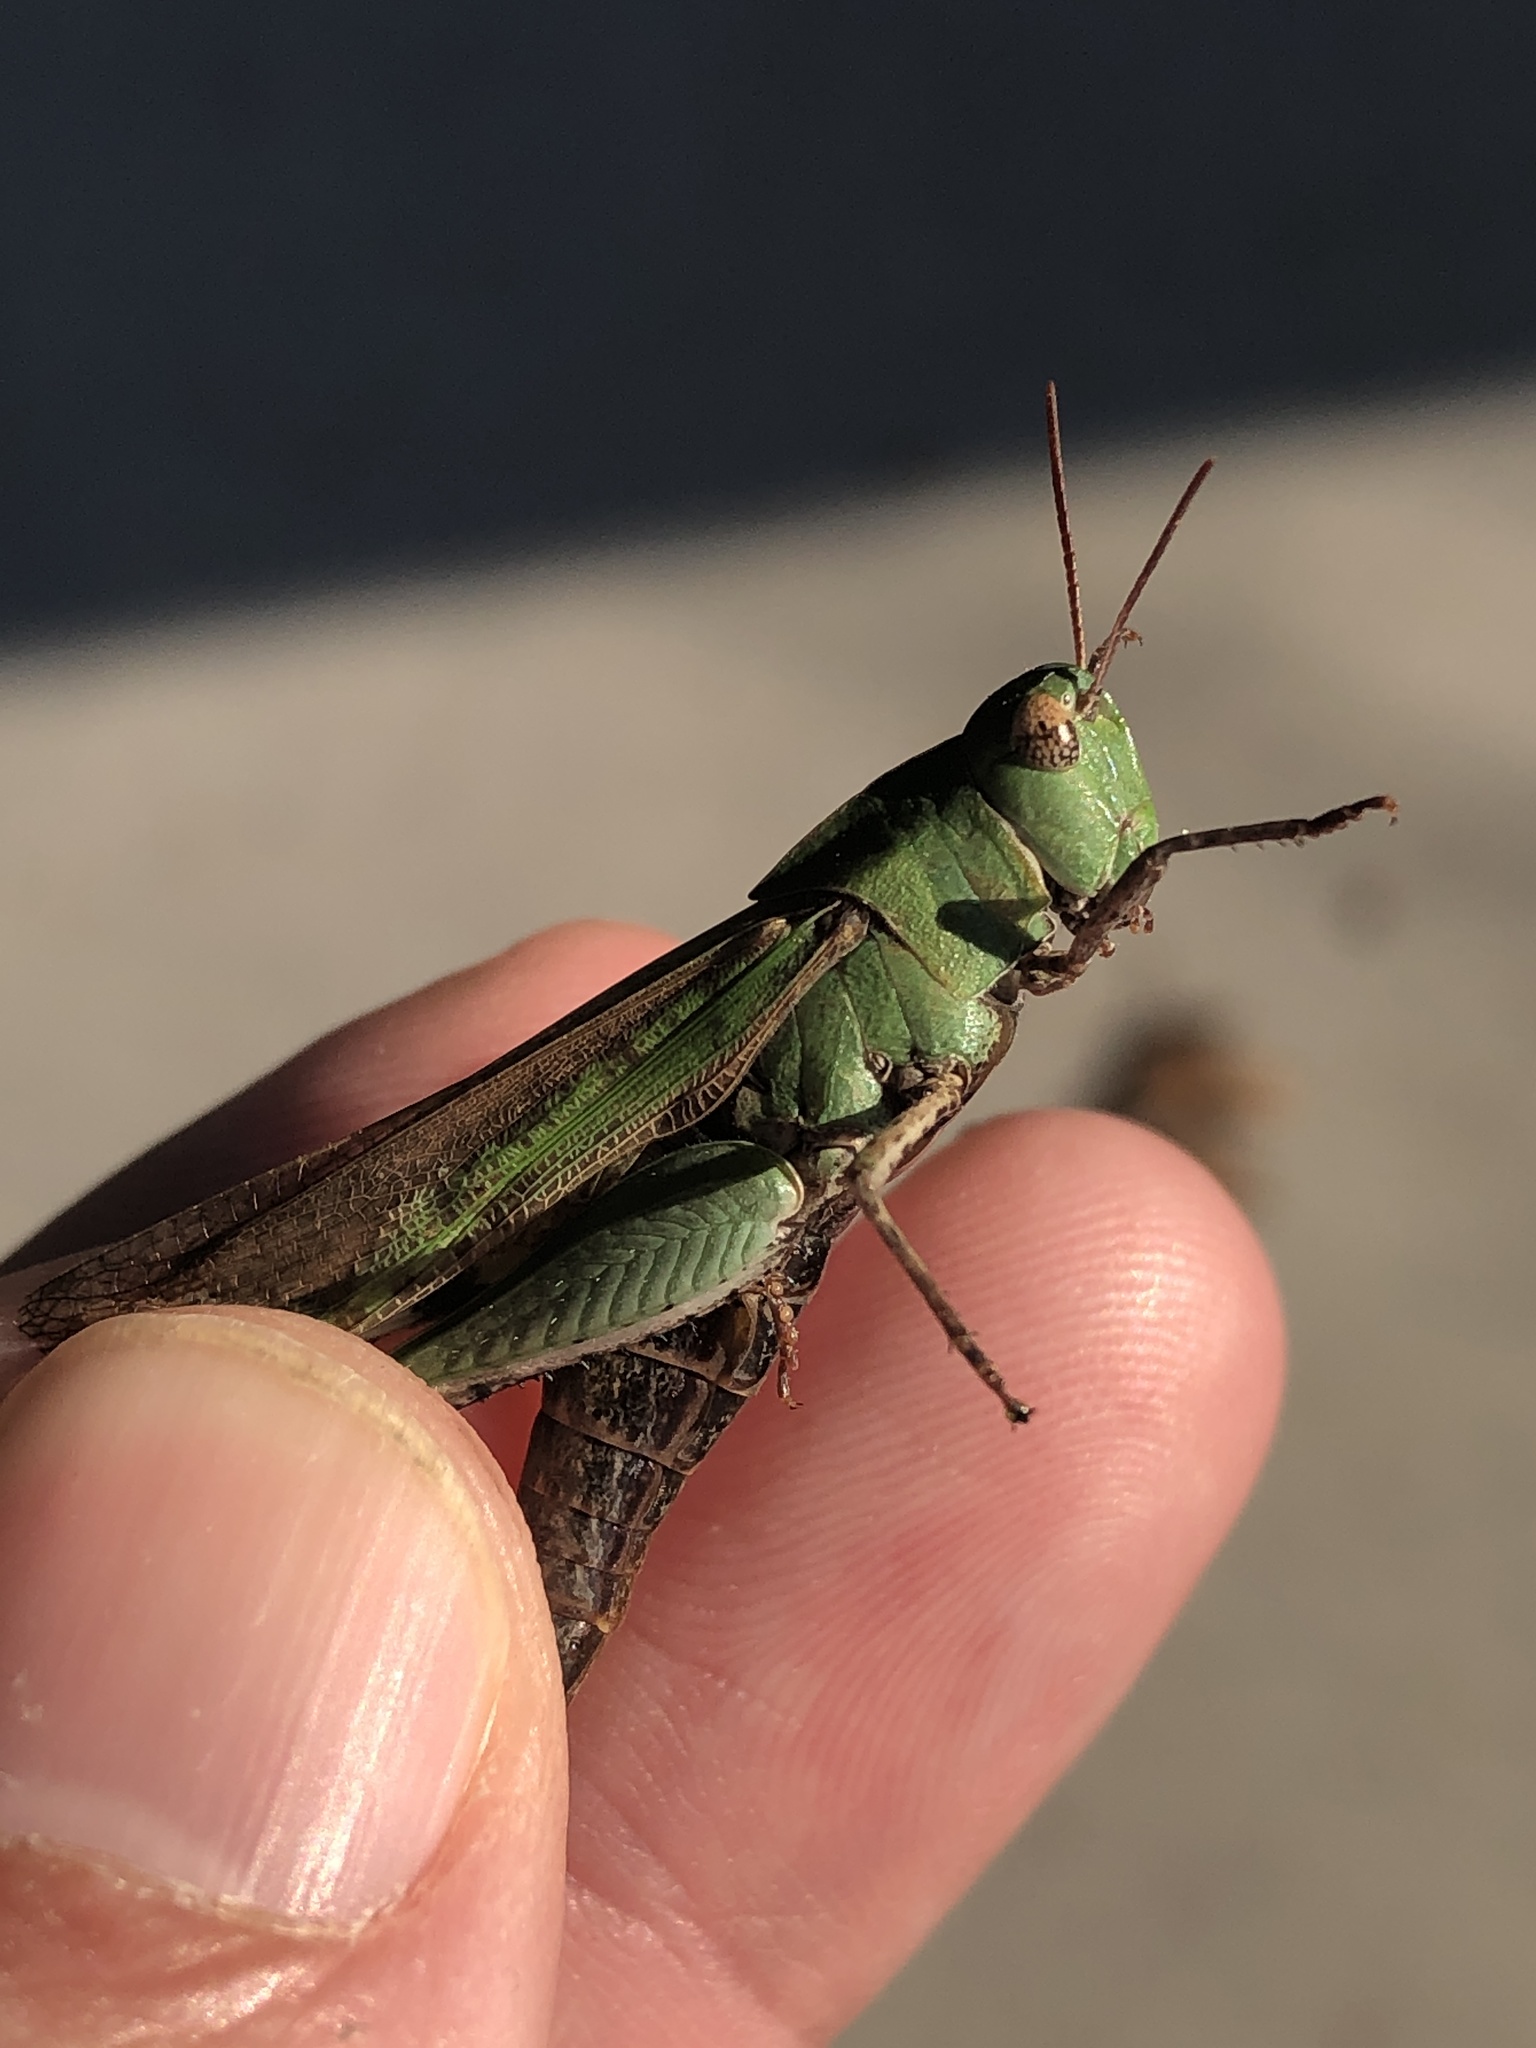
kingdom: Animalia
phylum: Arthropoda
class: Insecta
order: Orthoptera
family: Acrididae
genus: Chortophaga
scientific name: Chortophaga viridifasciata
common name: Green-striped grasshopper
